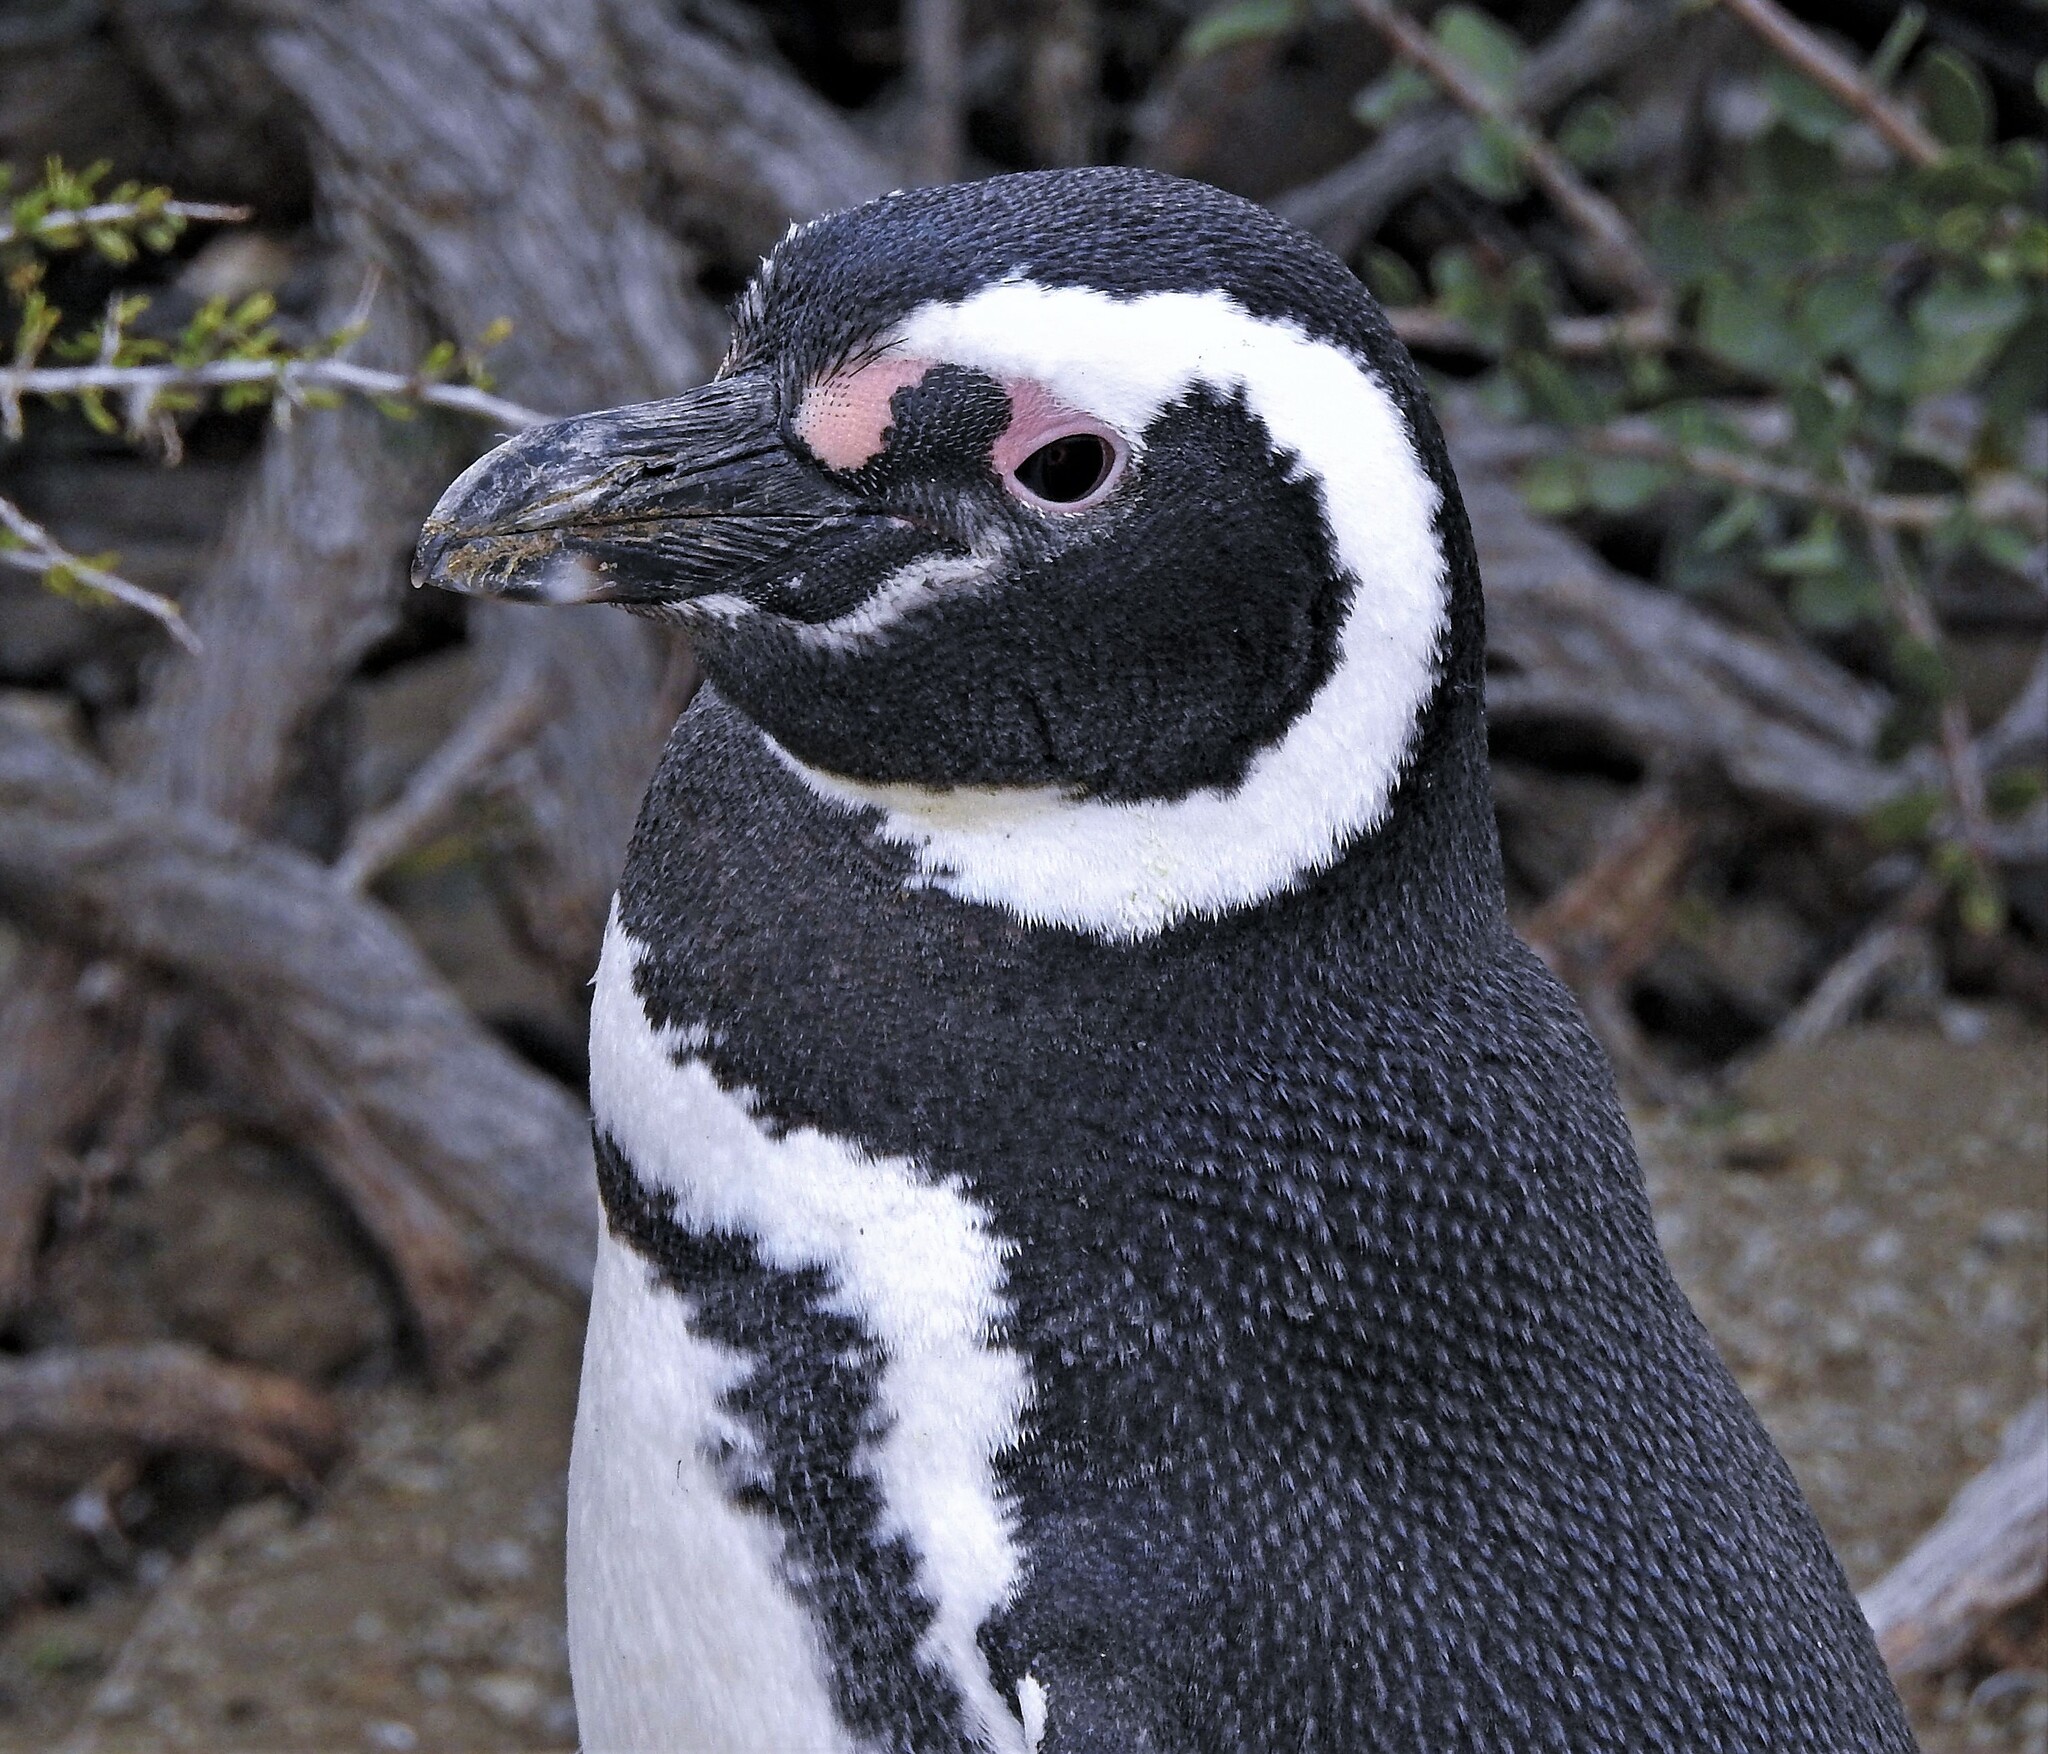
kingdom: Animalia
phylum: Chordata
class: Aves
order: Sphenisciformes
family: Spheniscidae
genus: Spheniscus
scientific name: Spheniscus magellanicus
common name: Magellanic penguin
